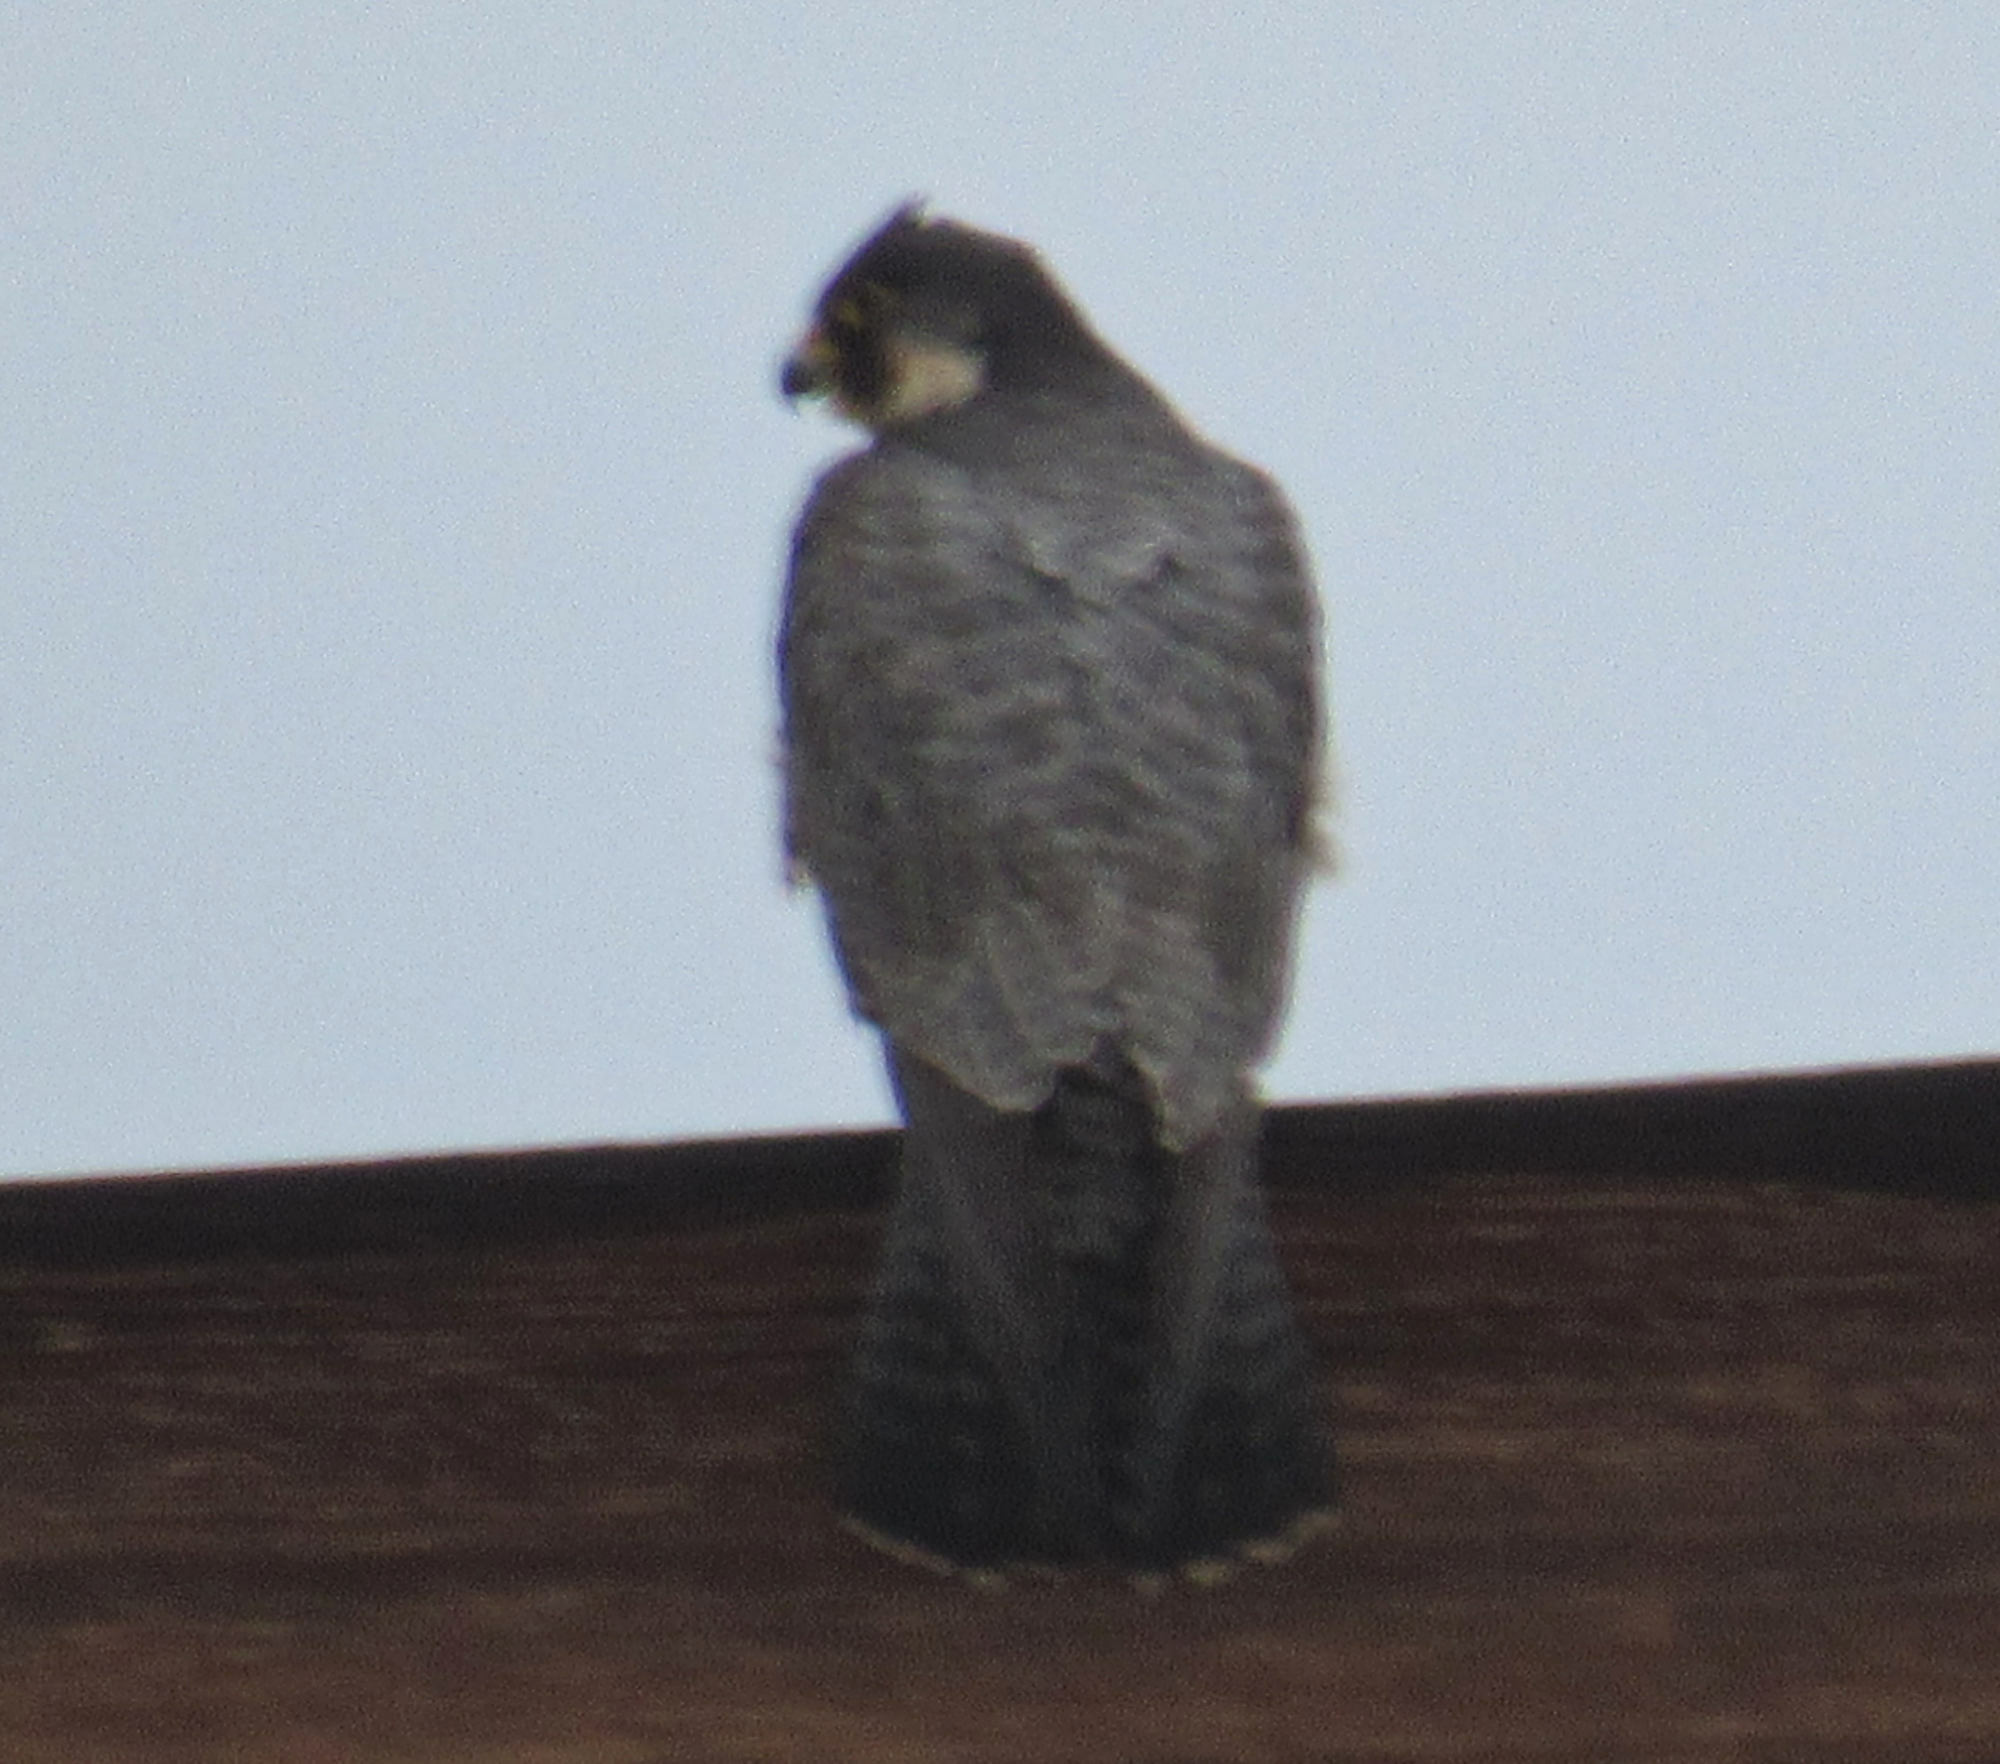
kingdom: Animalia
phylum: Chordata
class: Aves
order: Falconiformes
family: Falconidae
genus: Falco
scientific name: Falco peregrinus
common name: Peregrine falcon
